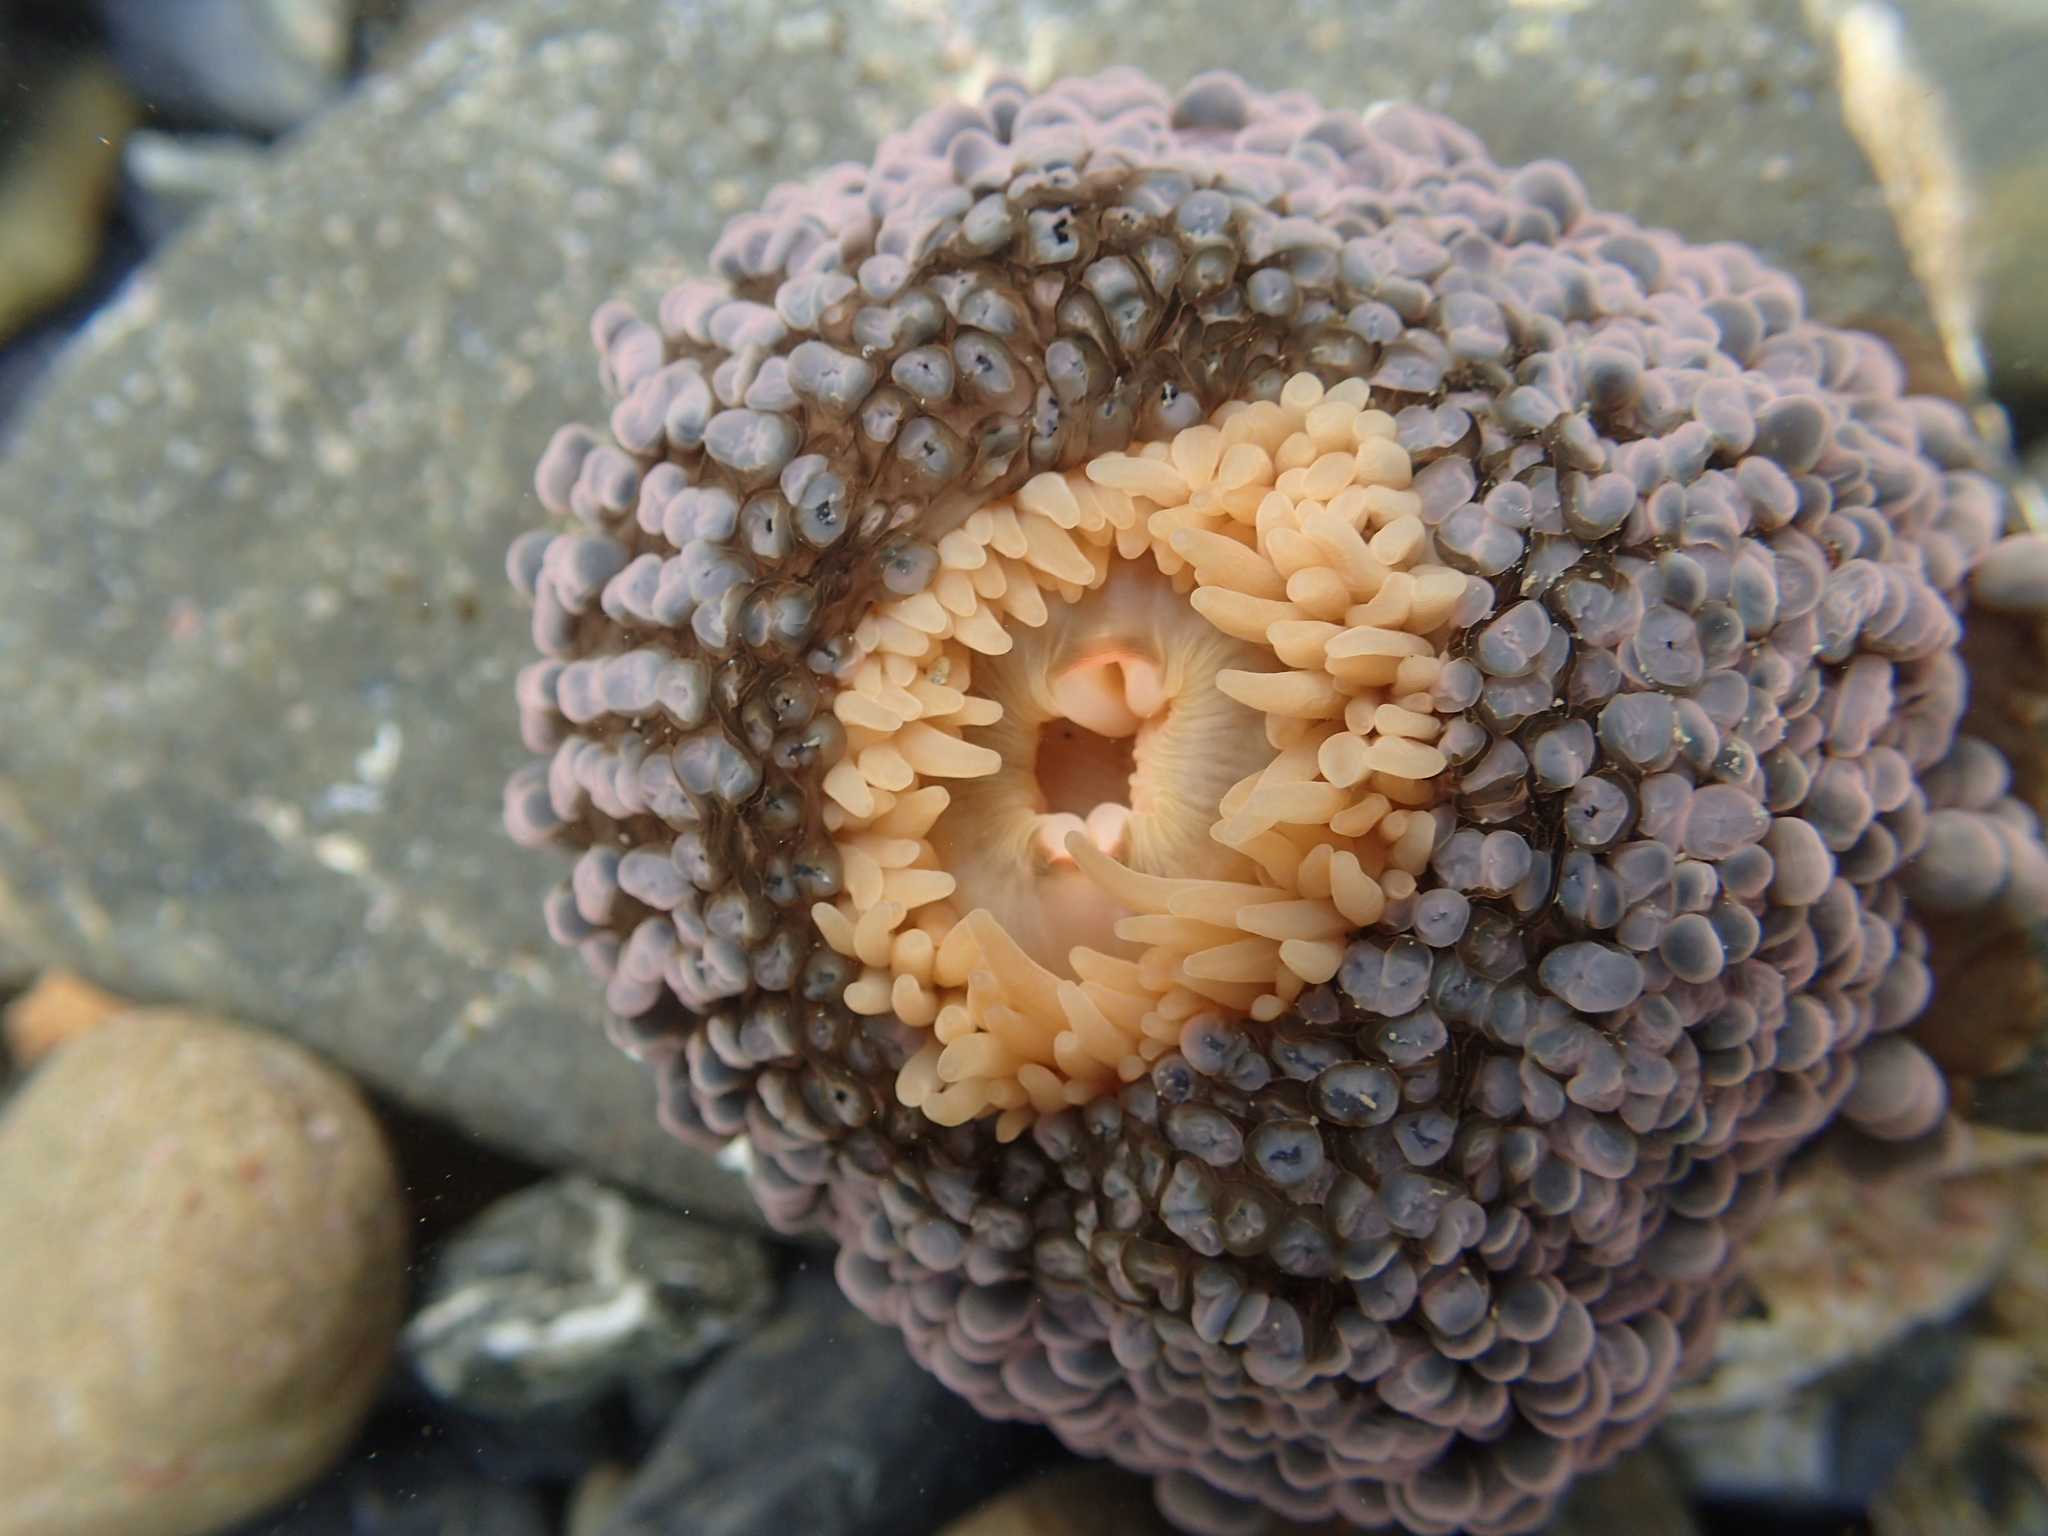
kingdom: Animalia
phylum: Cnidaria
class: Anthozoa
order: Actiniaria
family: Actiniidae
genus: Phlyctenactis
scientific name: Phlyctenactis tuberculosa
